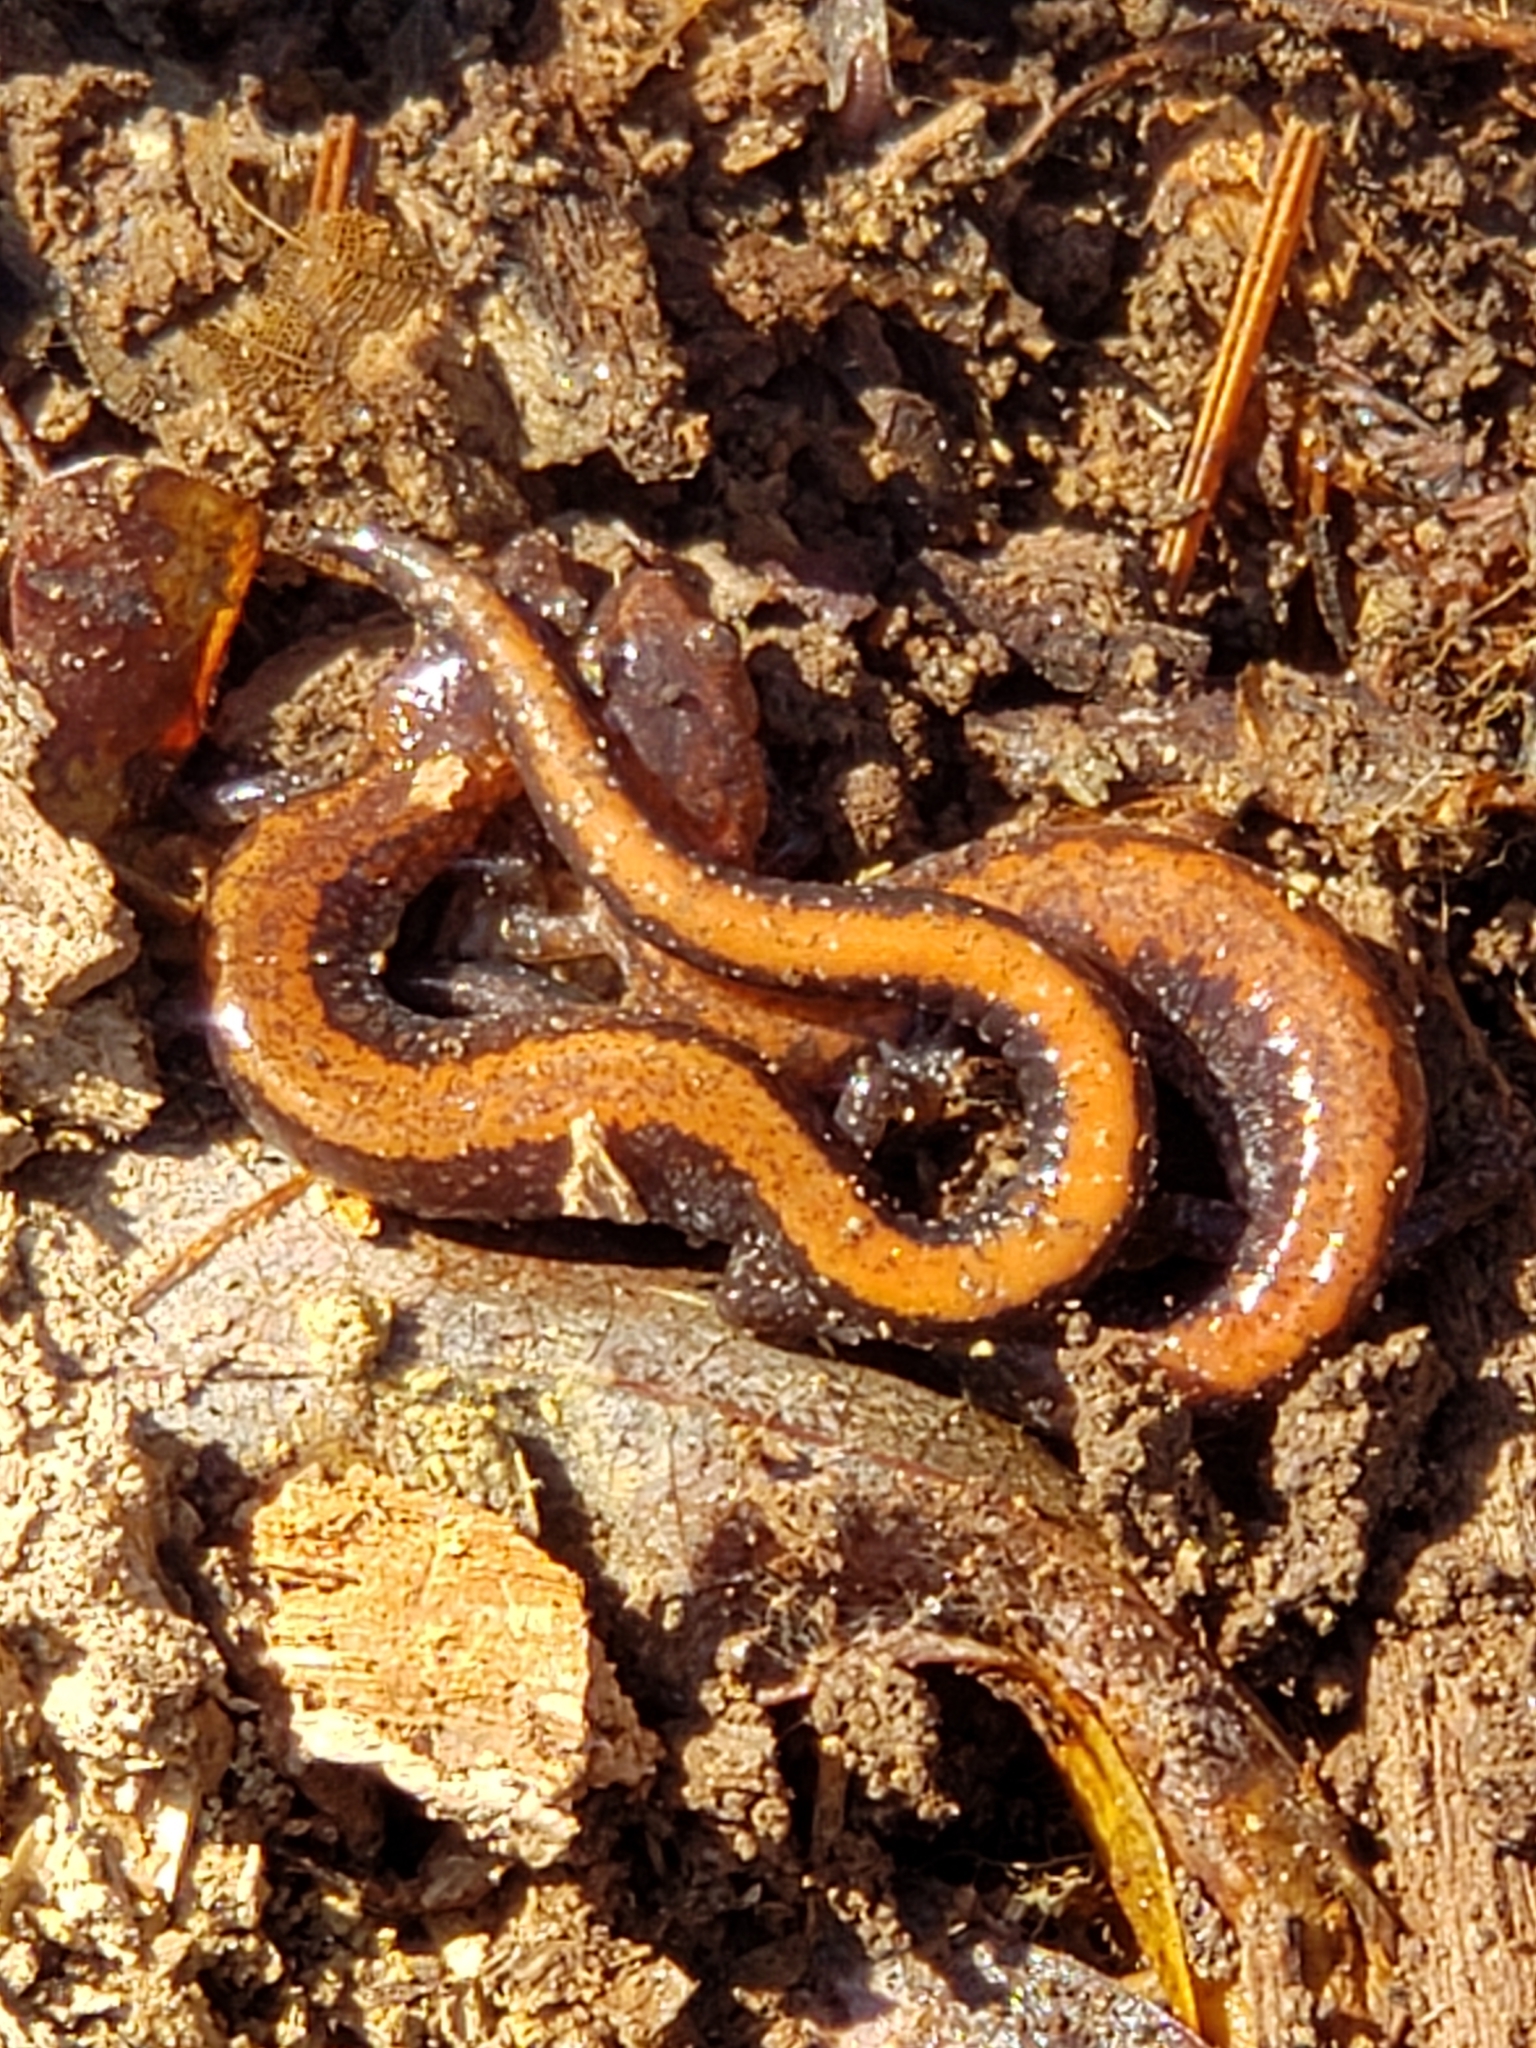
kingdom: Animalia
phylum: Chordata
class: Amphibia
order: Caudata
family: Plethodontidae
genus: Plethodon
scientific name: Plethodon cinereus
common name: Redback salamander
